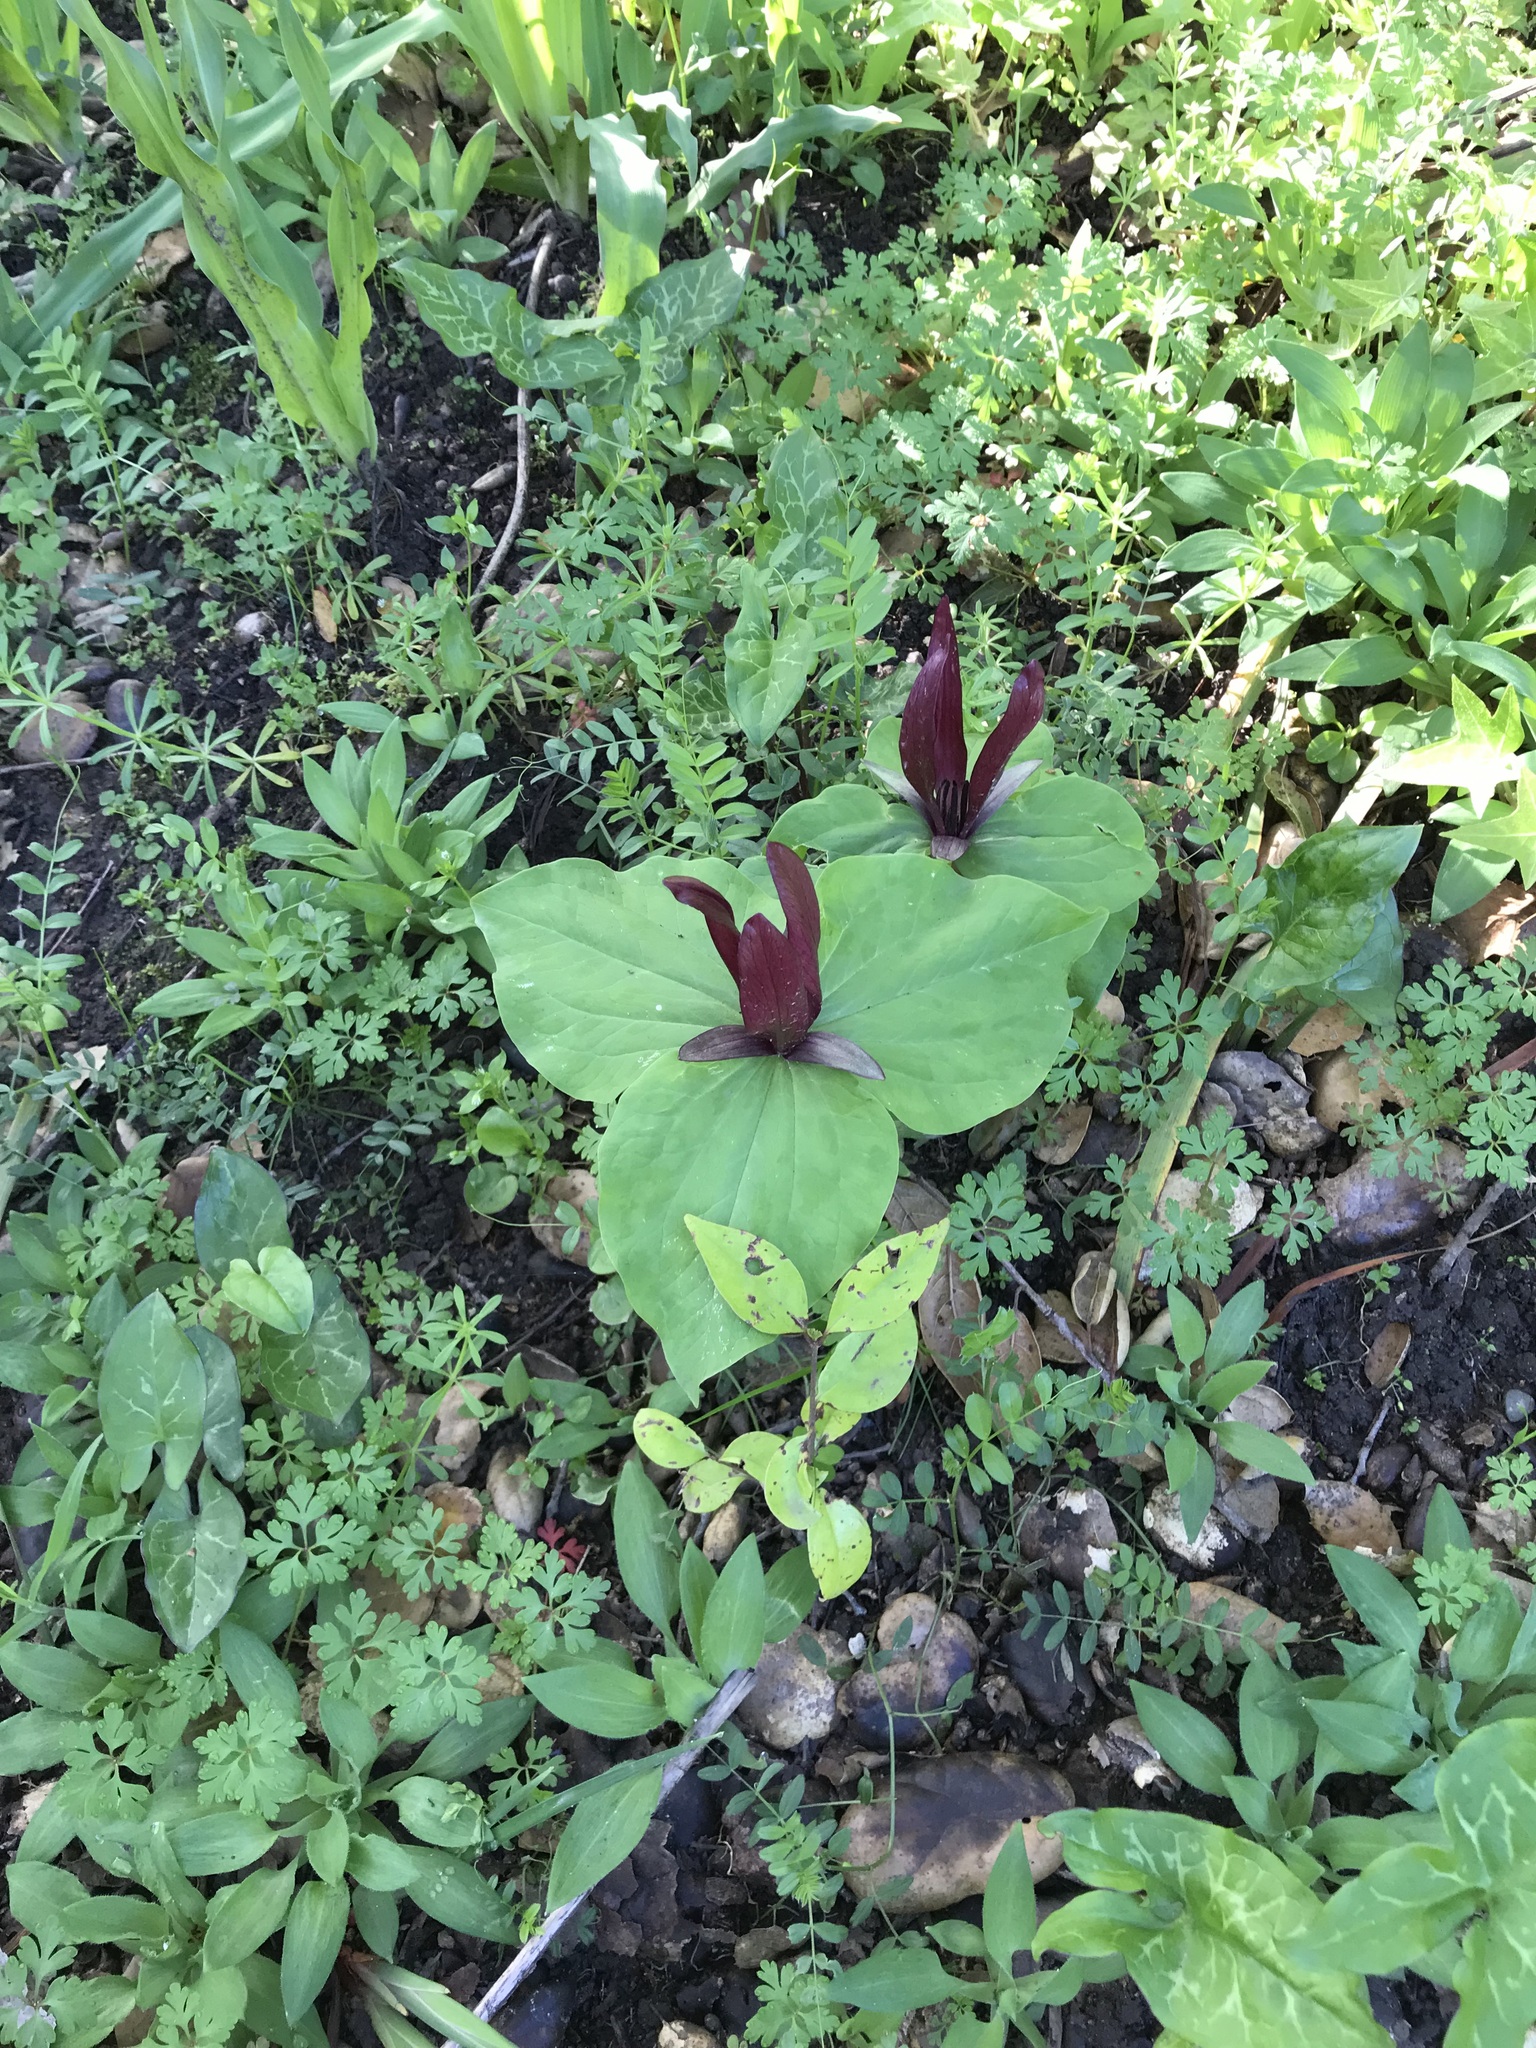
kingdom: Plantae
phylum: Tracheophyta
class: Liliopsida
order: Liliales
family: Melanthiaceae
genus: Trillium
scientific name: Trillium chloropetalum
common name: Giant trillium
